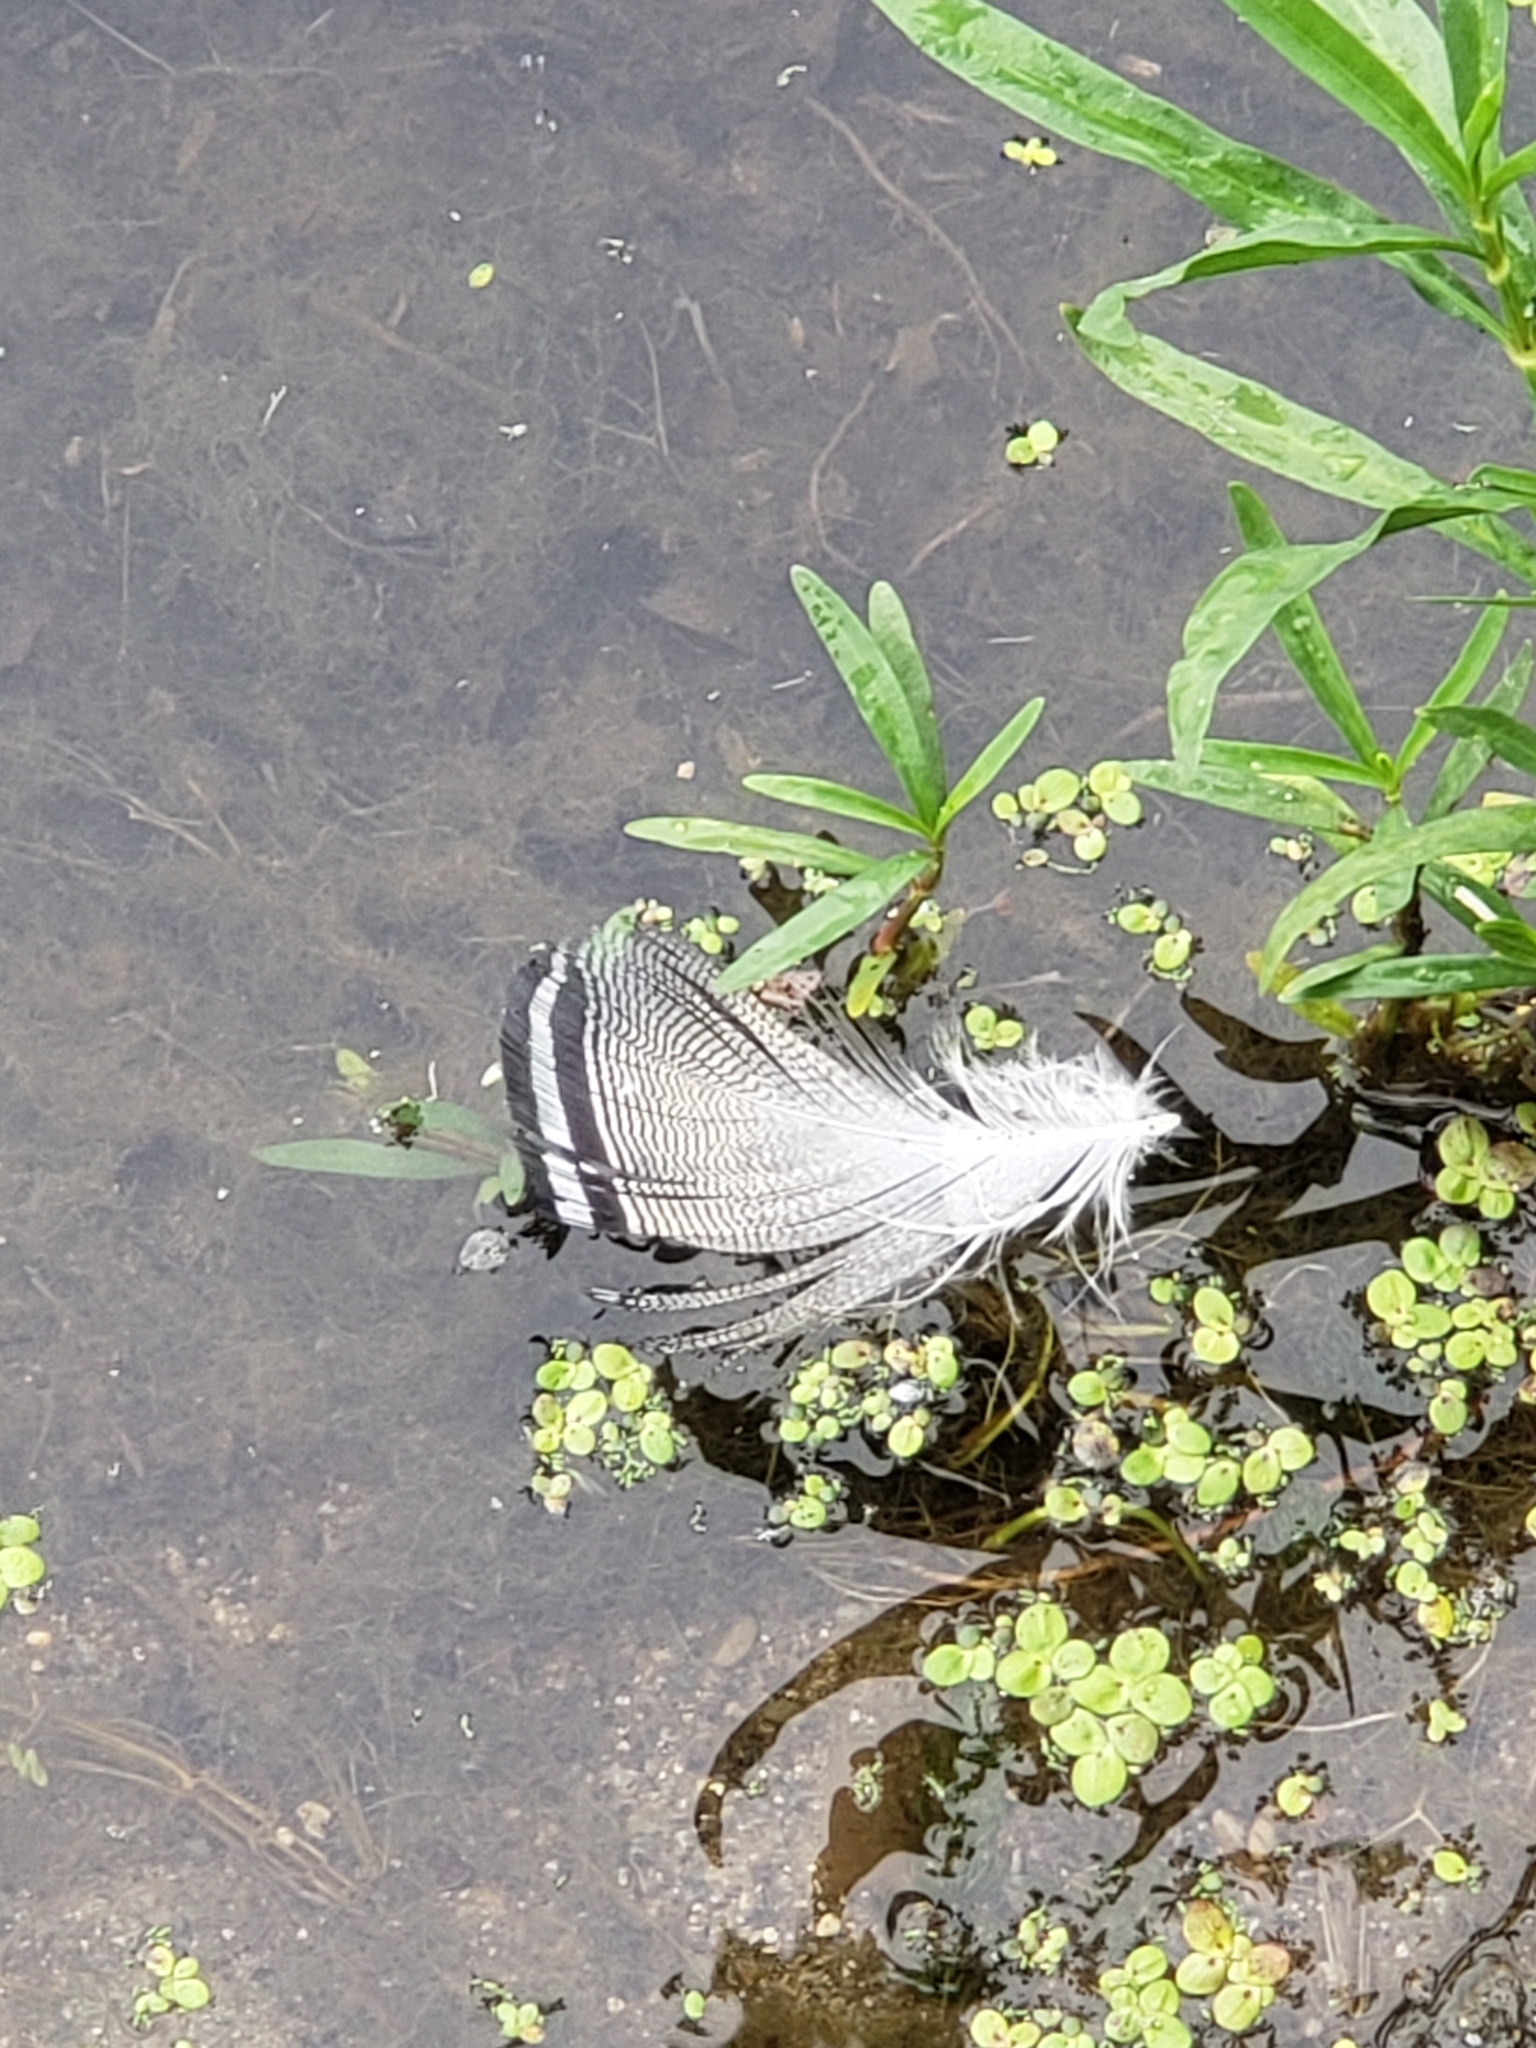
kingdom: Animalia
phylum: Chordata
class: Aves
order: Anseriformes
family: Anatidae
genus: Aix
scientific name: Aix sponsa
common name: Wood duck
